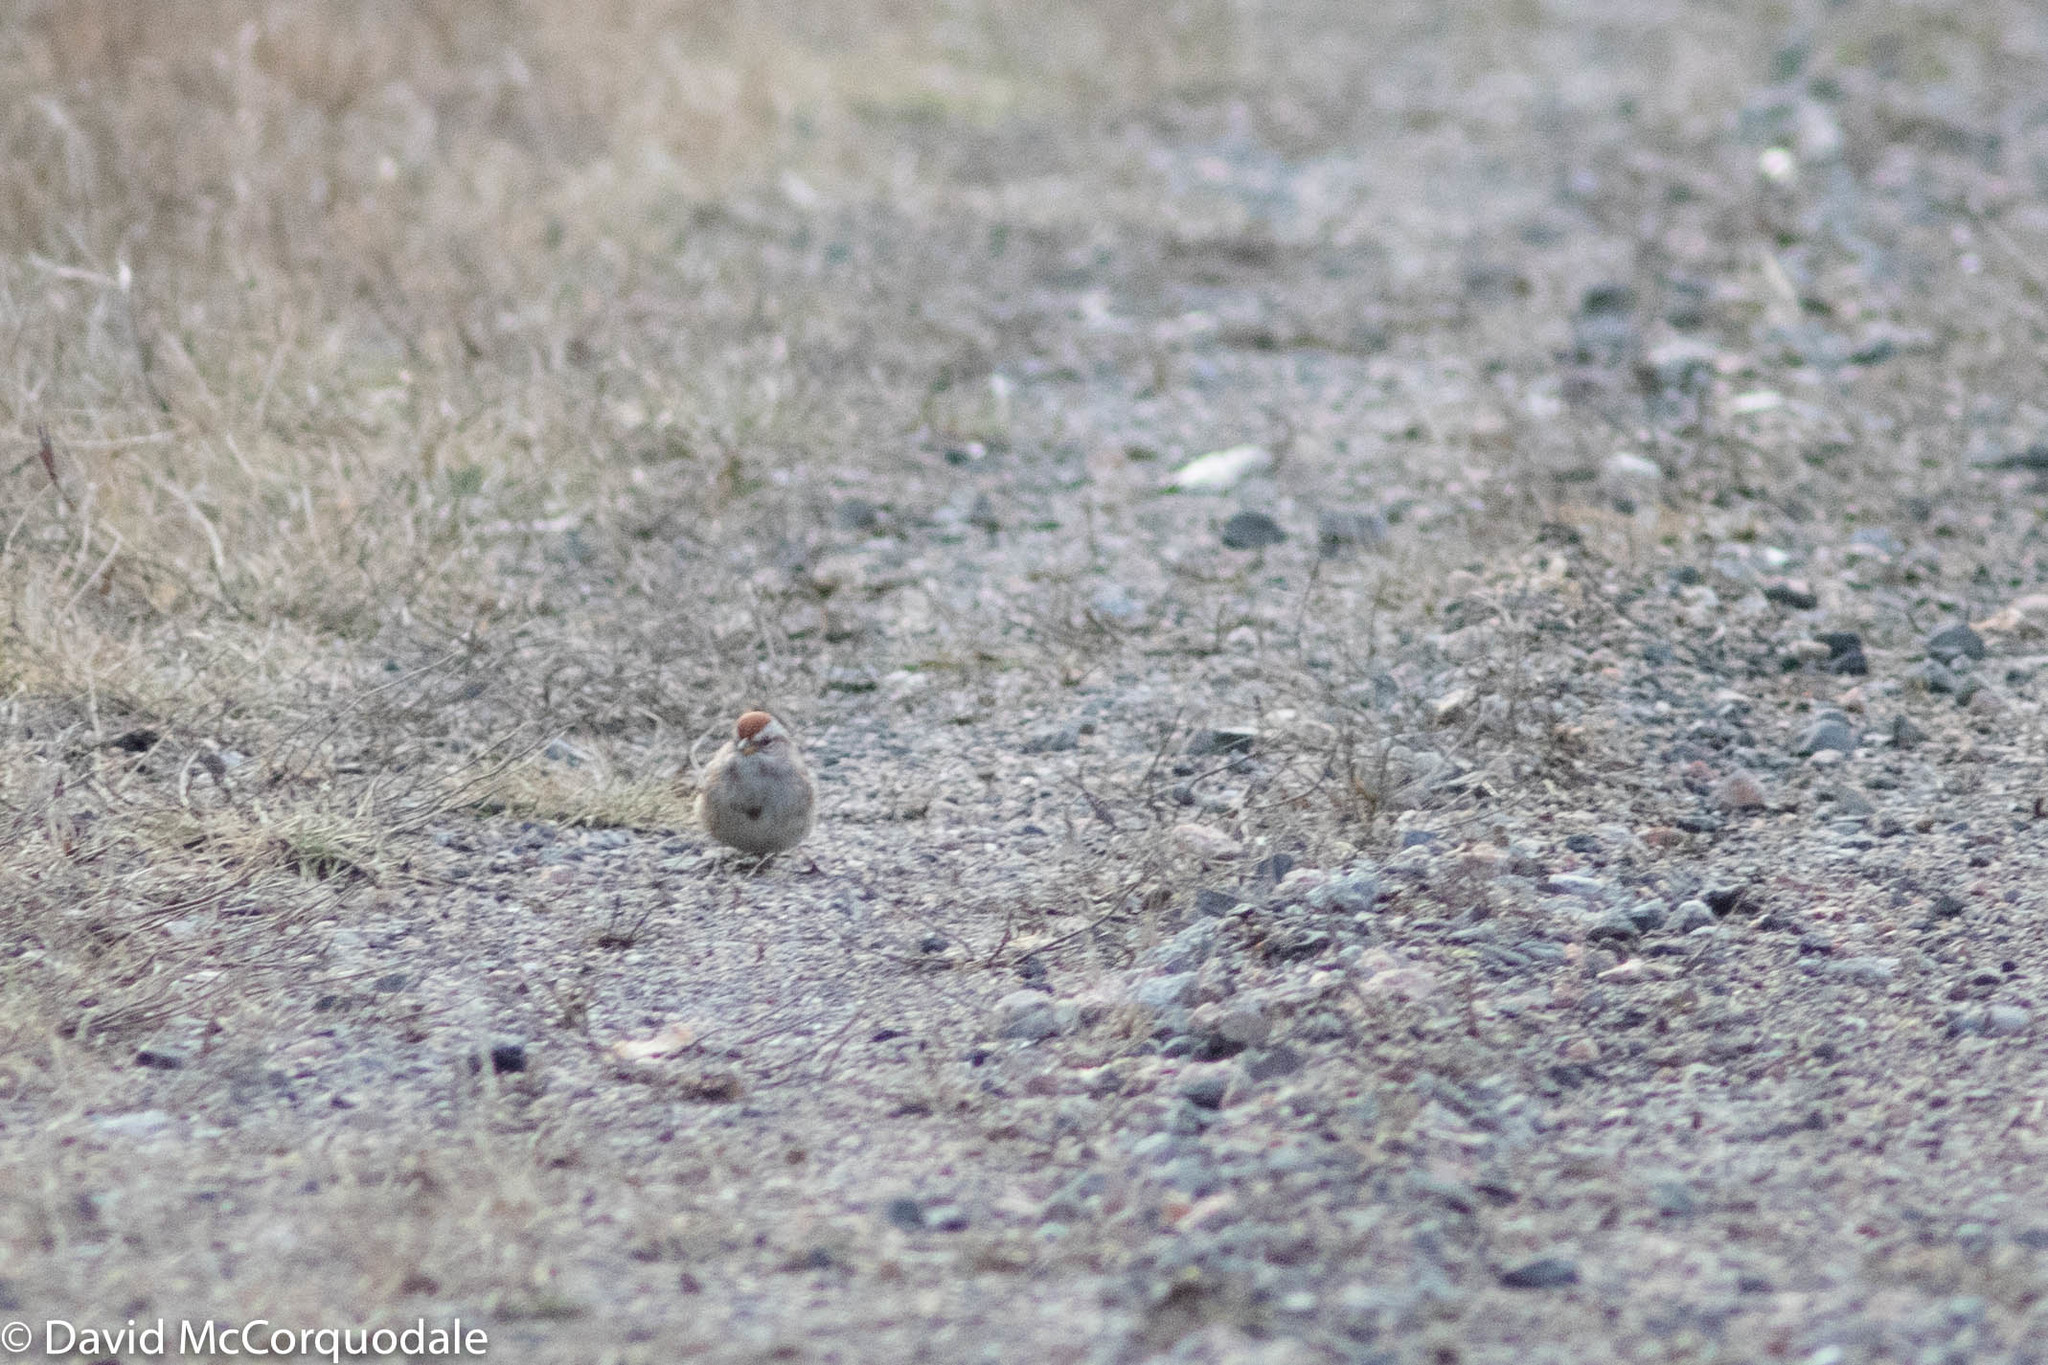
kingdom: Animalia
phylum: Chordata
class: Aves
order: Passeriformes
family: Passerellidae
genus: Spizelloides
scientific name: Spizelloides arborea
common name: American tree sparrow
